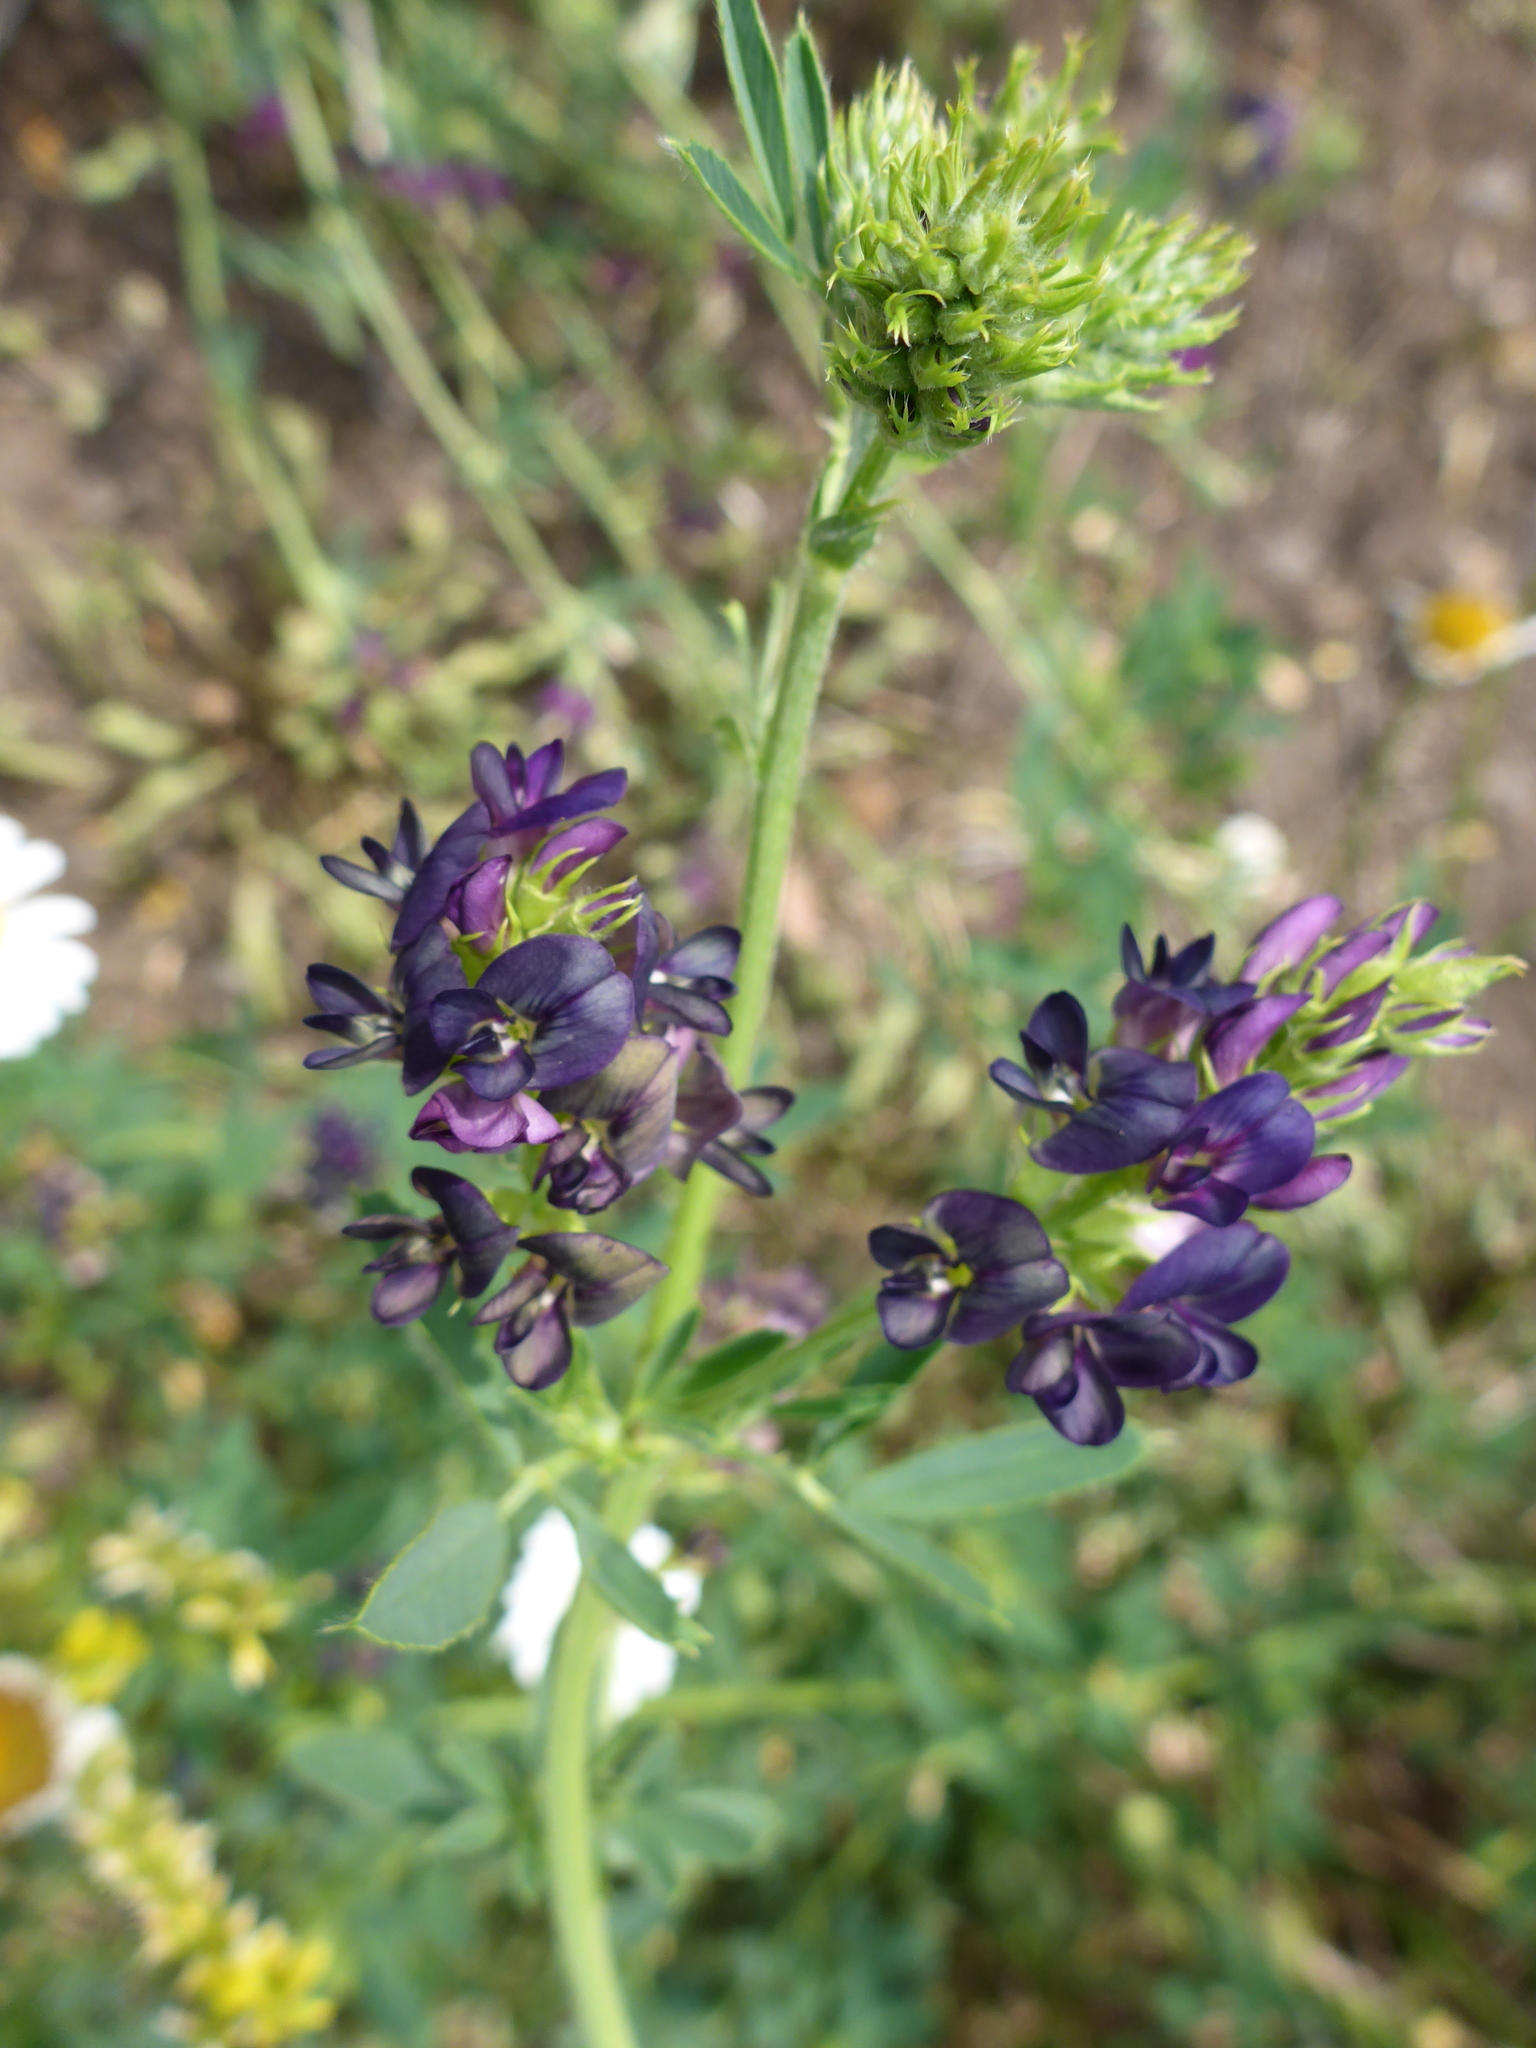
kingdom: Plantae
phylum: Tracheophyta
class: Magnoliopsida
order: Fabales
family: Fabaceae
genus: Medicago
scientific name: Medicago sativa
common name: Alfalfa
